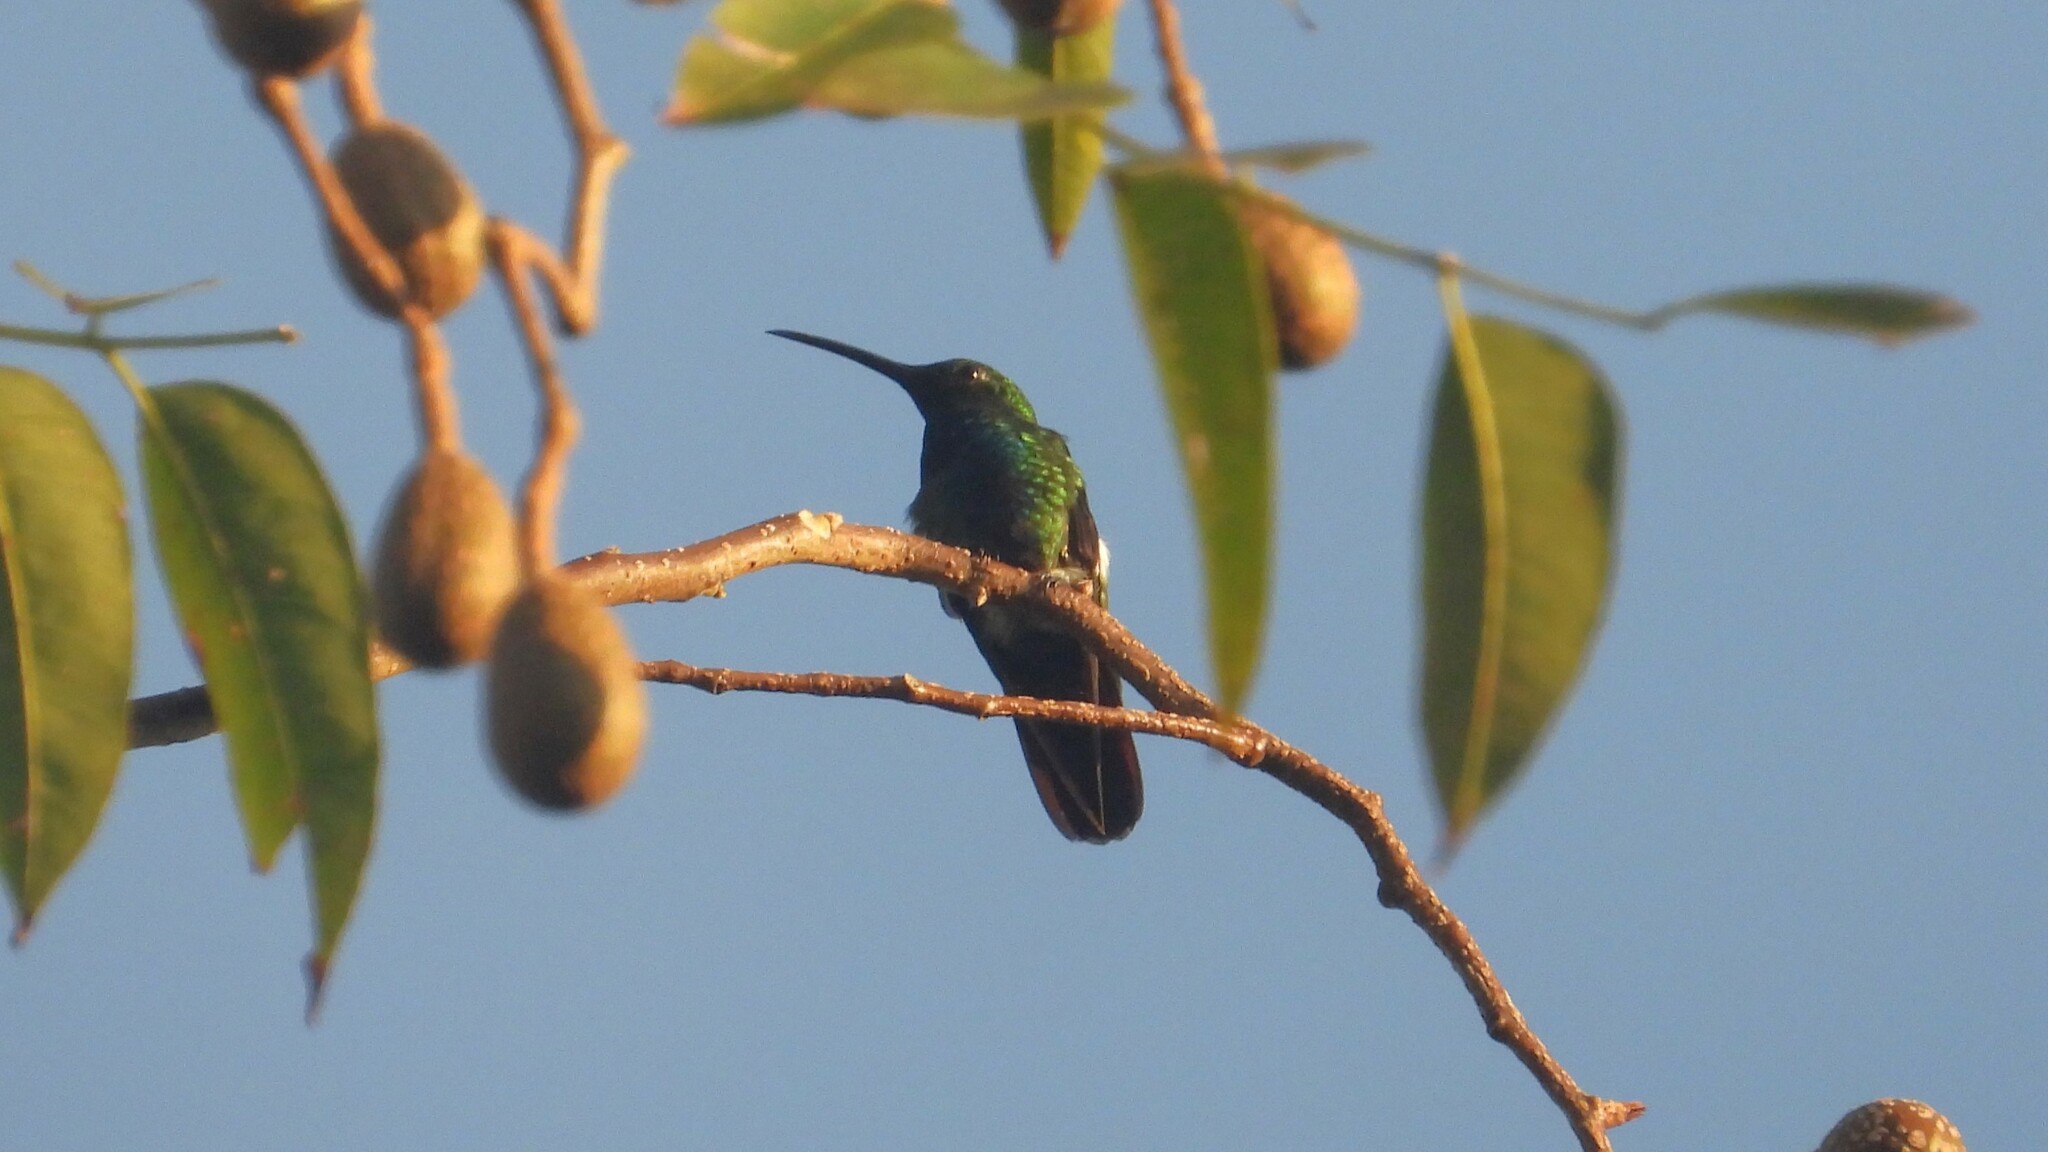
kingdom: Animalia
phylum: Chordata
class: Aves
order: Apodiformes
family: Trochilidae
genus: Anthracothorax
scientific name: Anthracothorax prevostii
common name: Green-breasted mango
